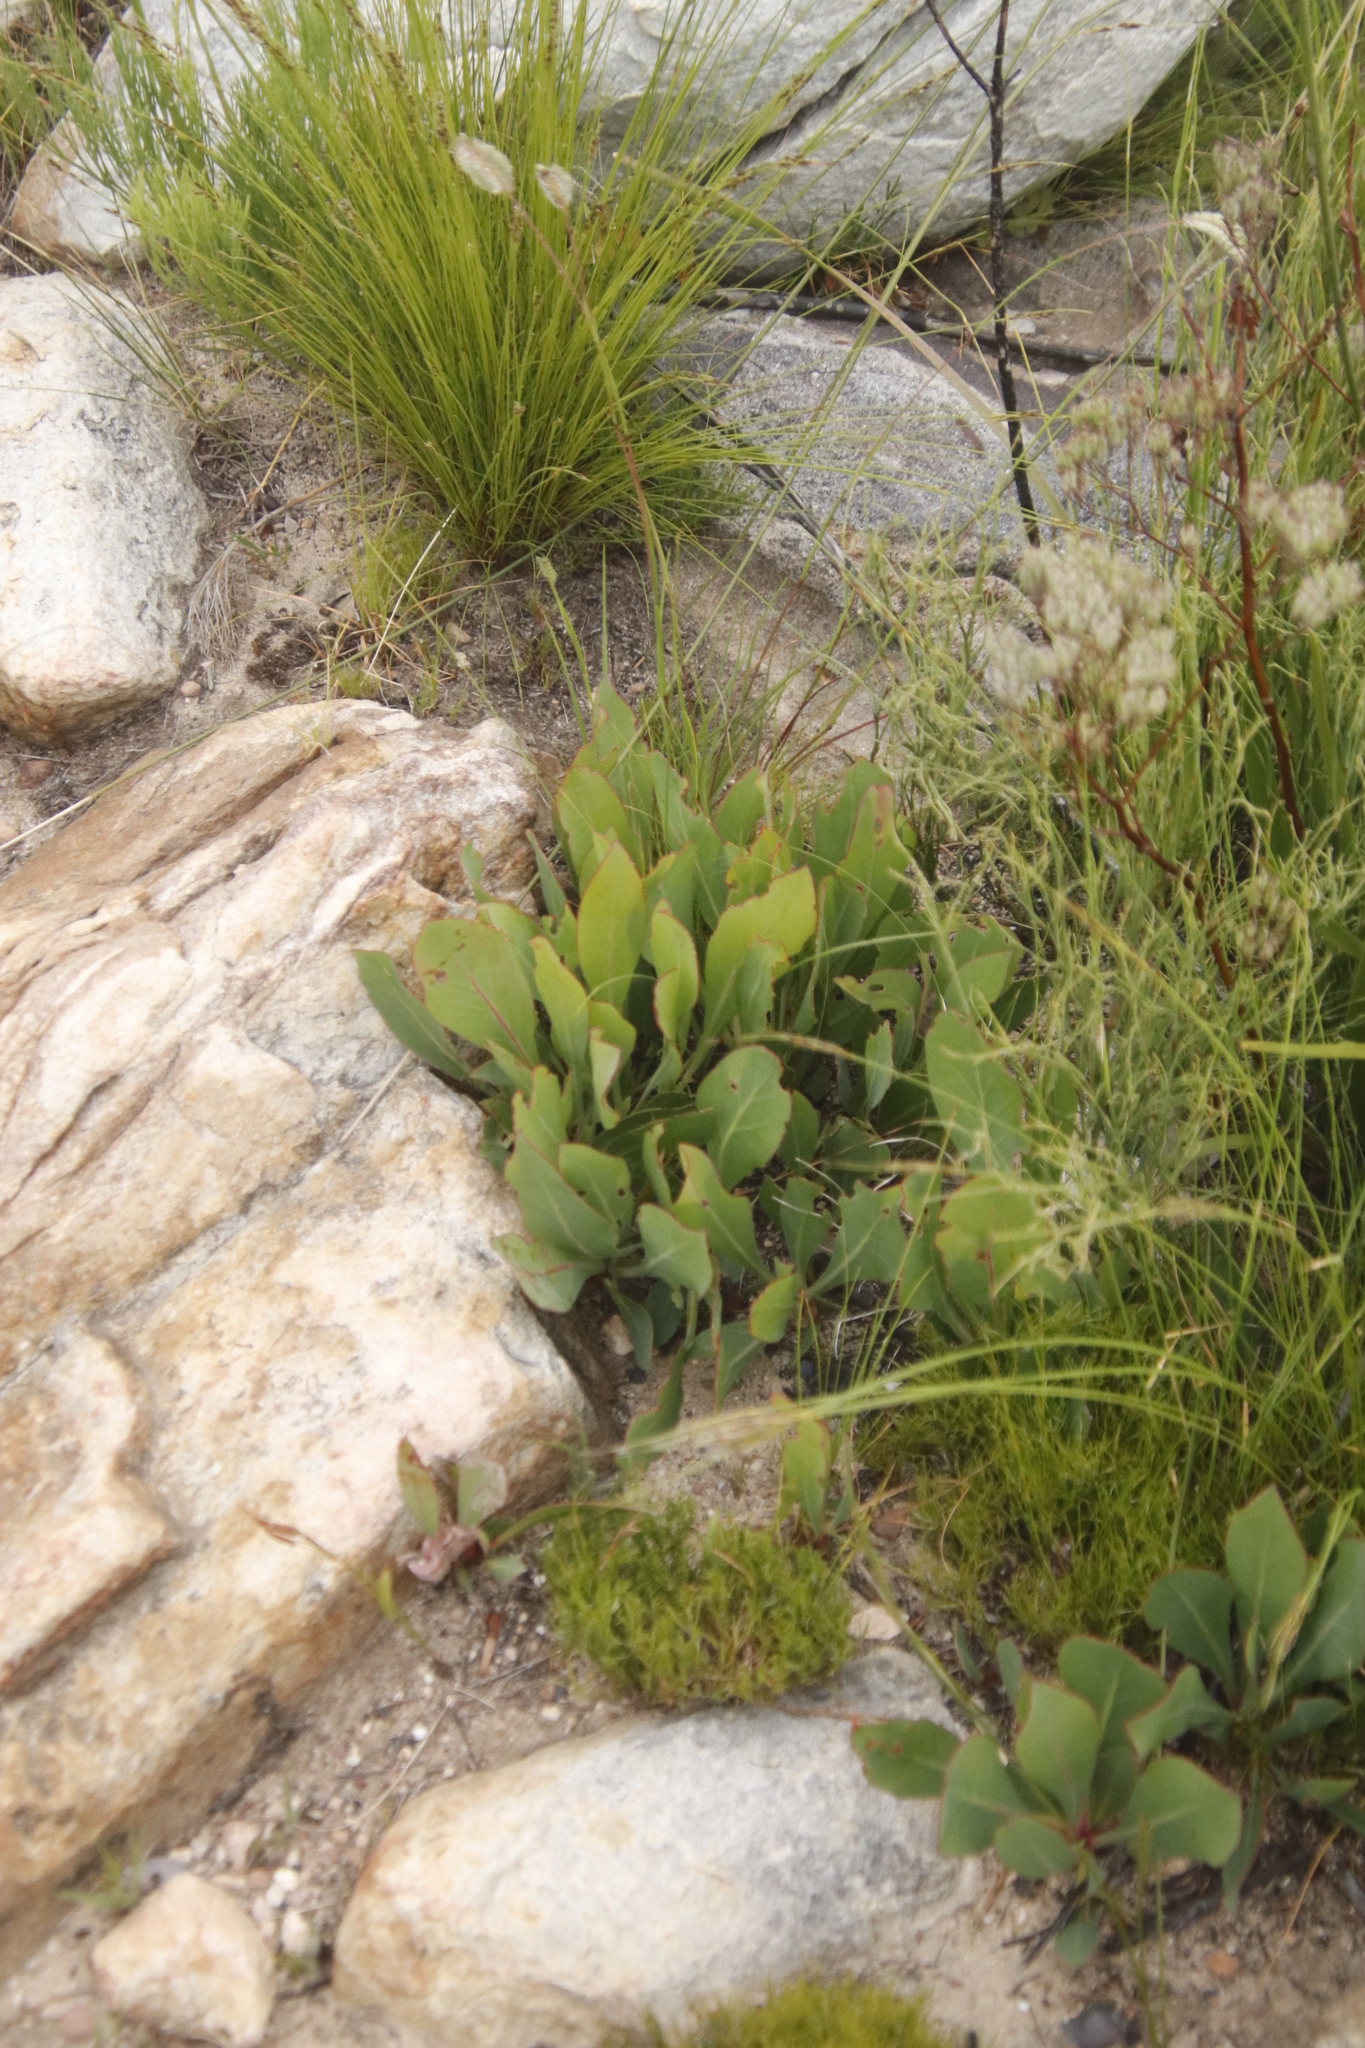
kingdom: Plantae
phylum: Tracheophyta
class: Magnoliopsida
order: Proteales
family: Proteaceae
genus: Protea
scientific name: Protea acaulos
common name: Common ground sugarbush
